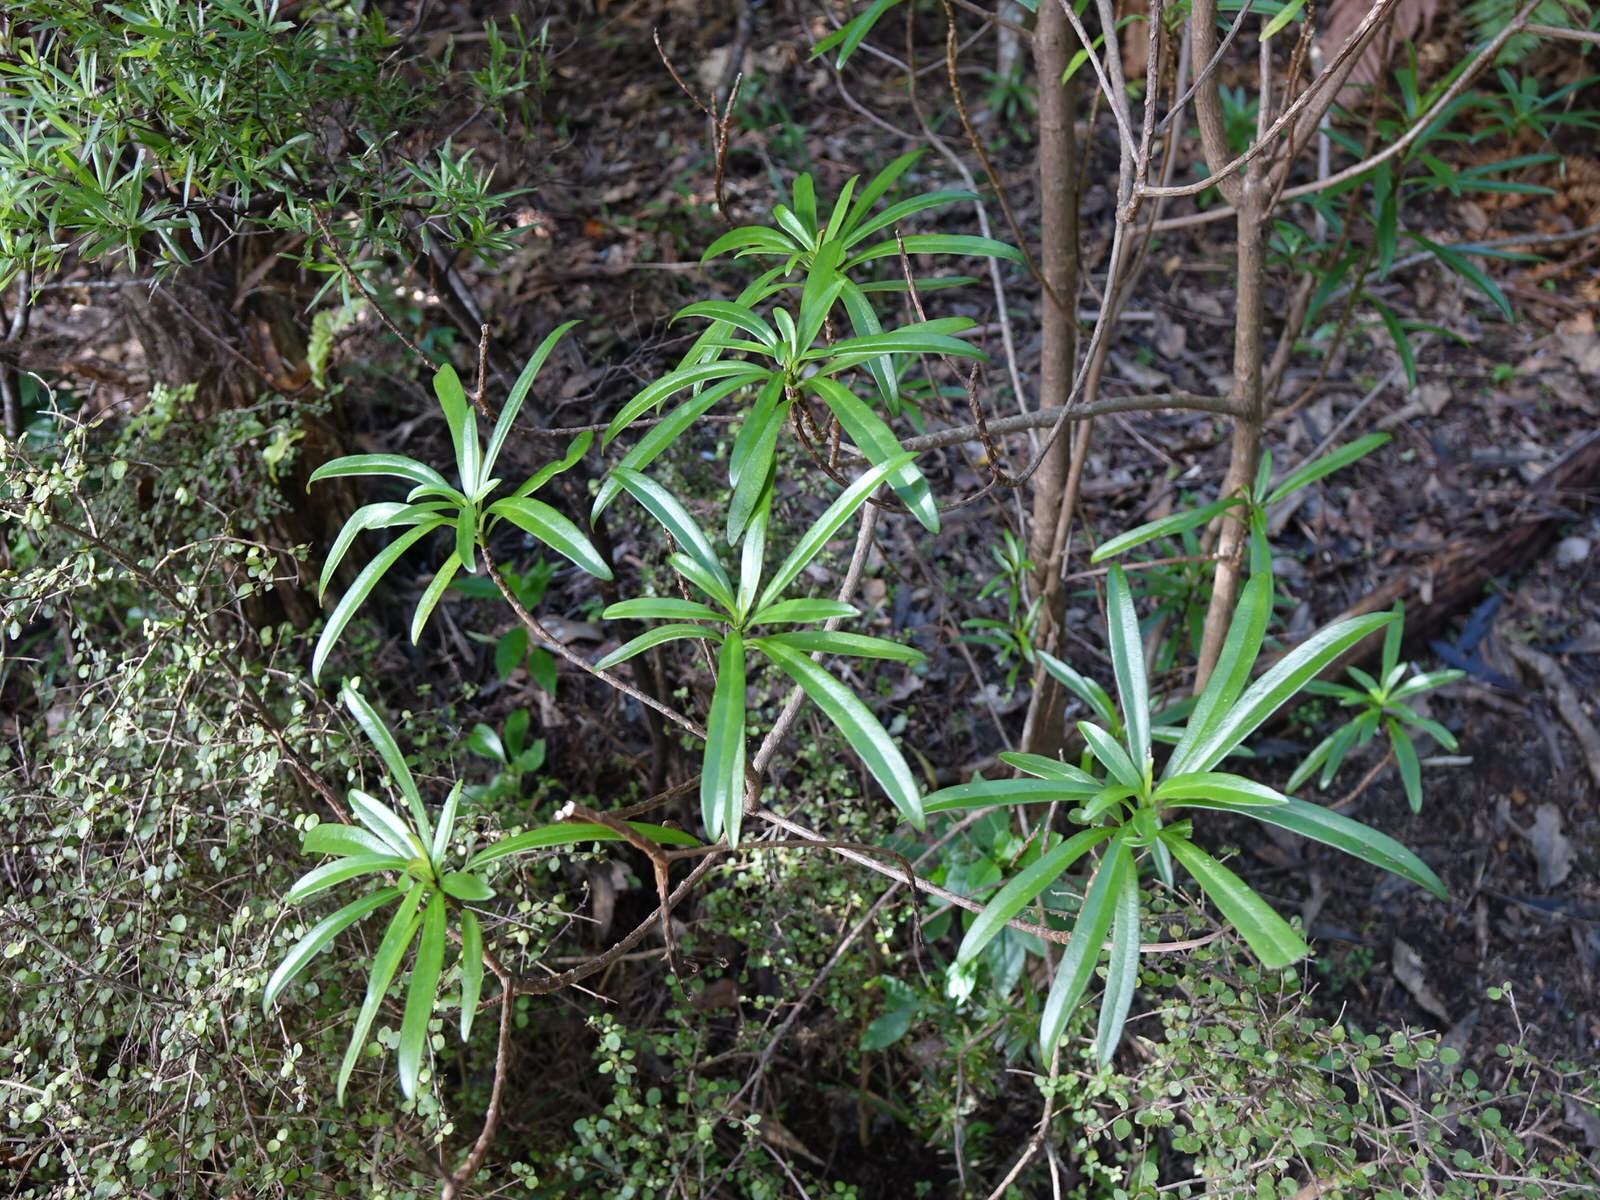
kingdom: Plantae
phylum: Tracheophyta
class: Magnoliopsida
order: Asterales
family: Asteraceae
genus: Brachyglottis
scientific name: Brachyglottis kirkii
